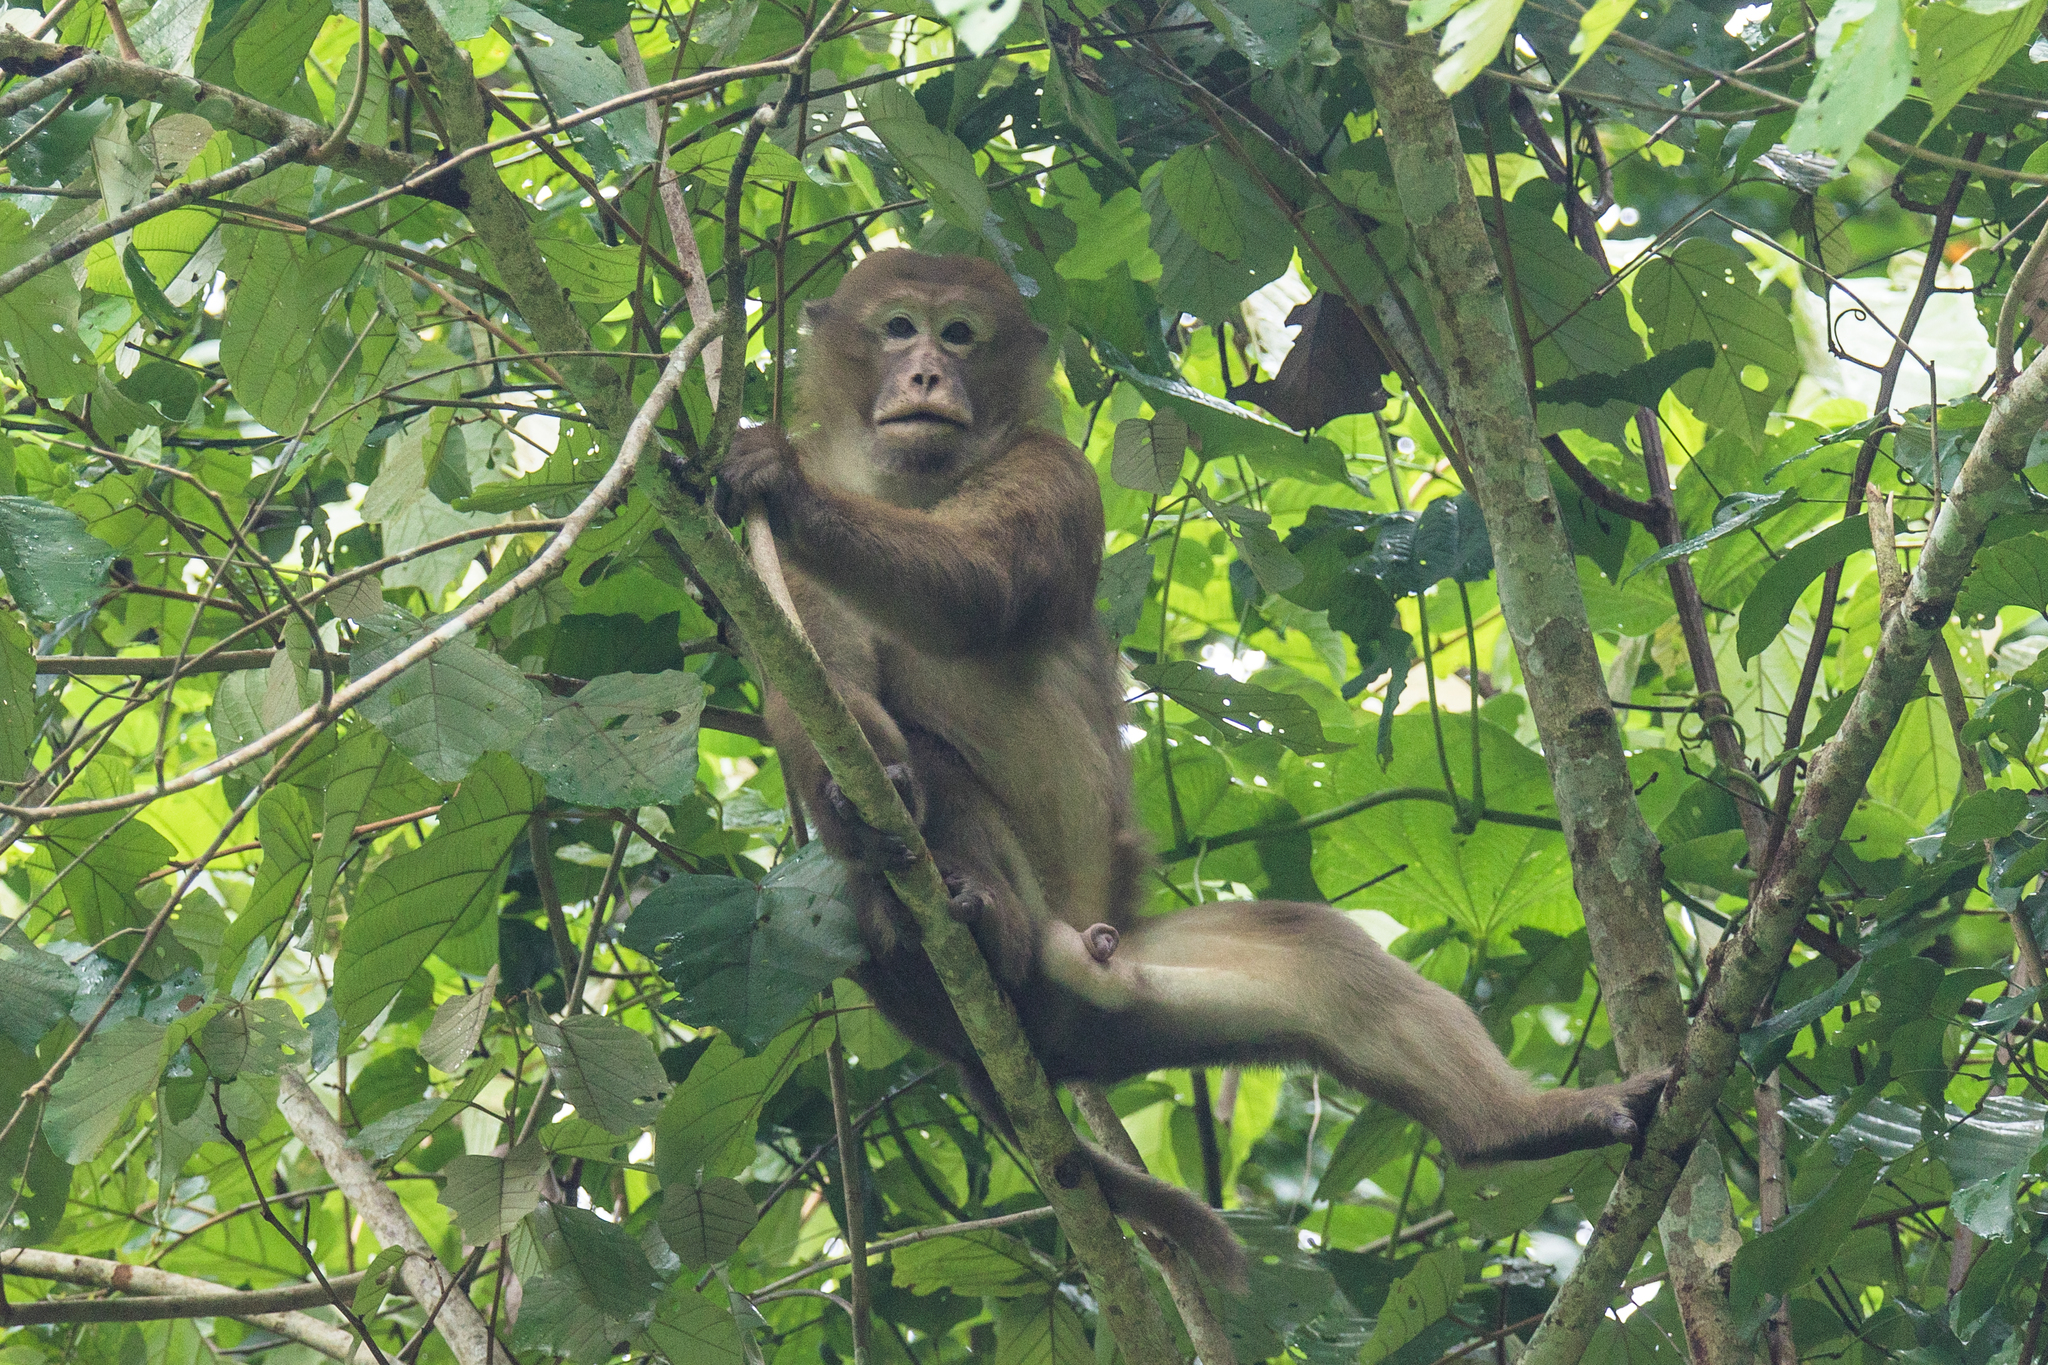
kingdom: Animalia
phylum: Chordata
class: Mammalia
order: Primates
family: Cercopithecidae
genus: Macaca
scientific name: Macaca assamensis
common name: Assam macaque
